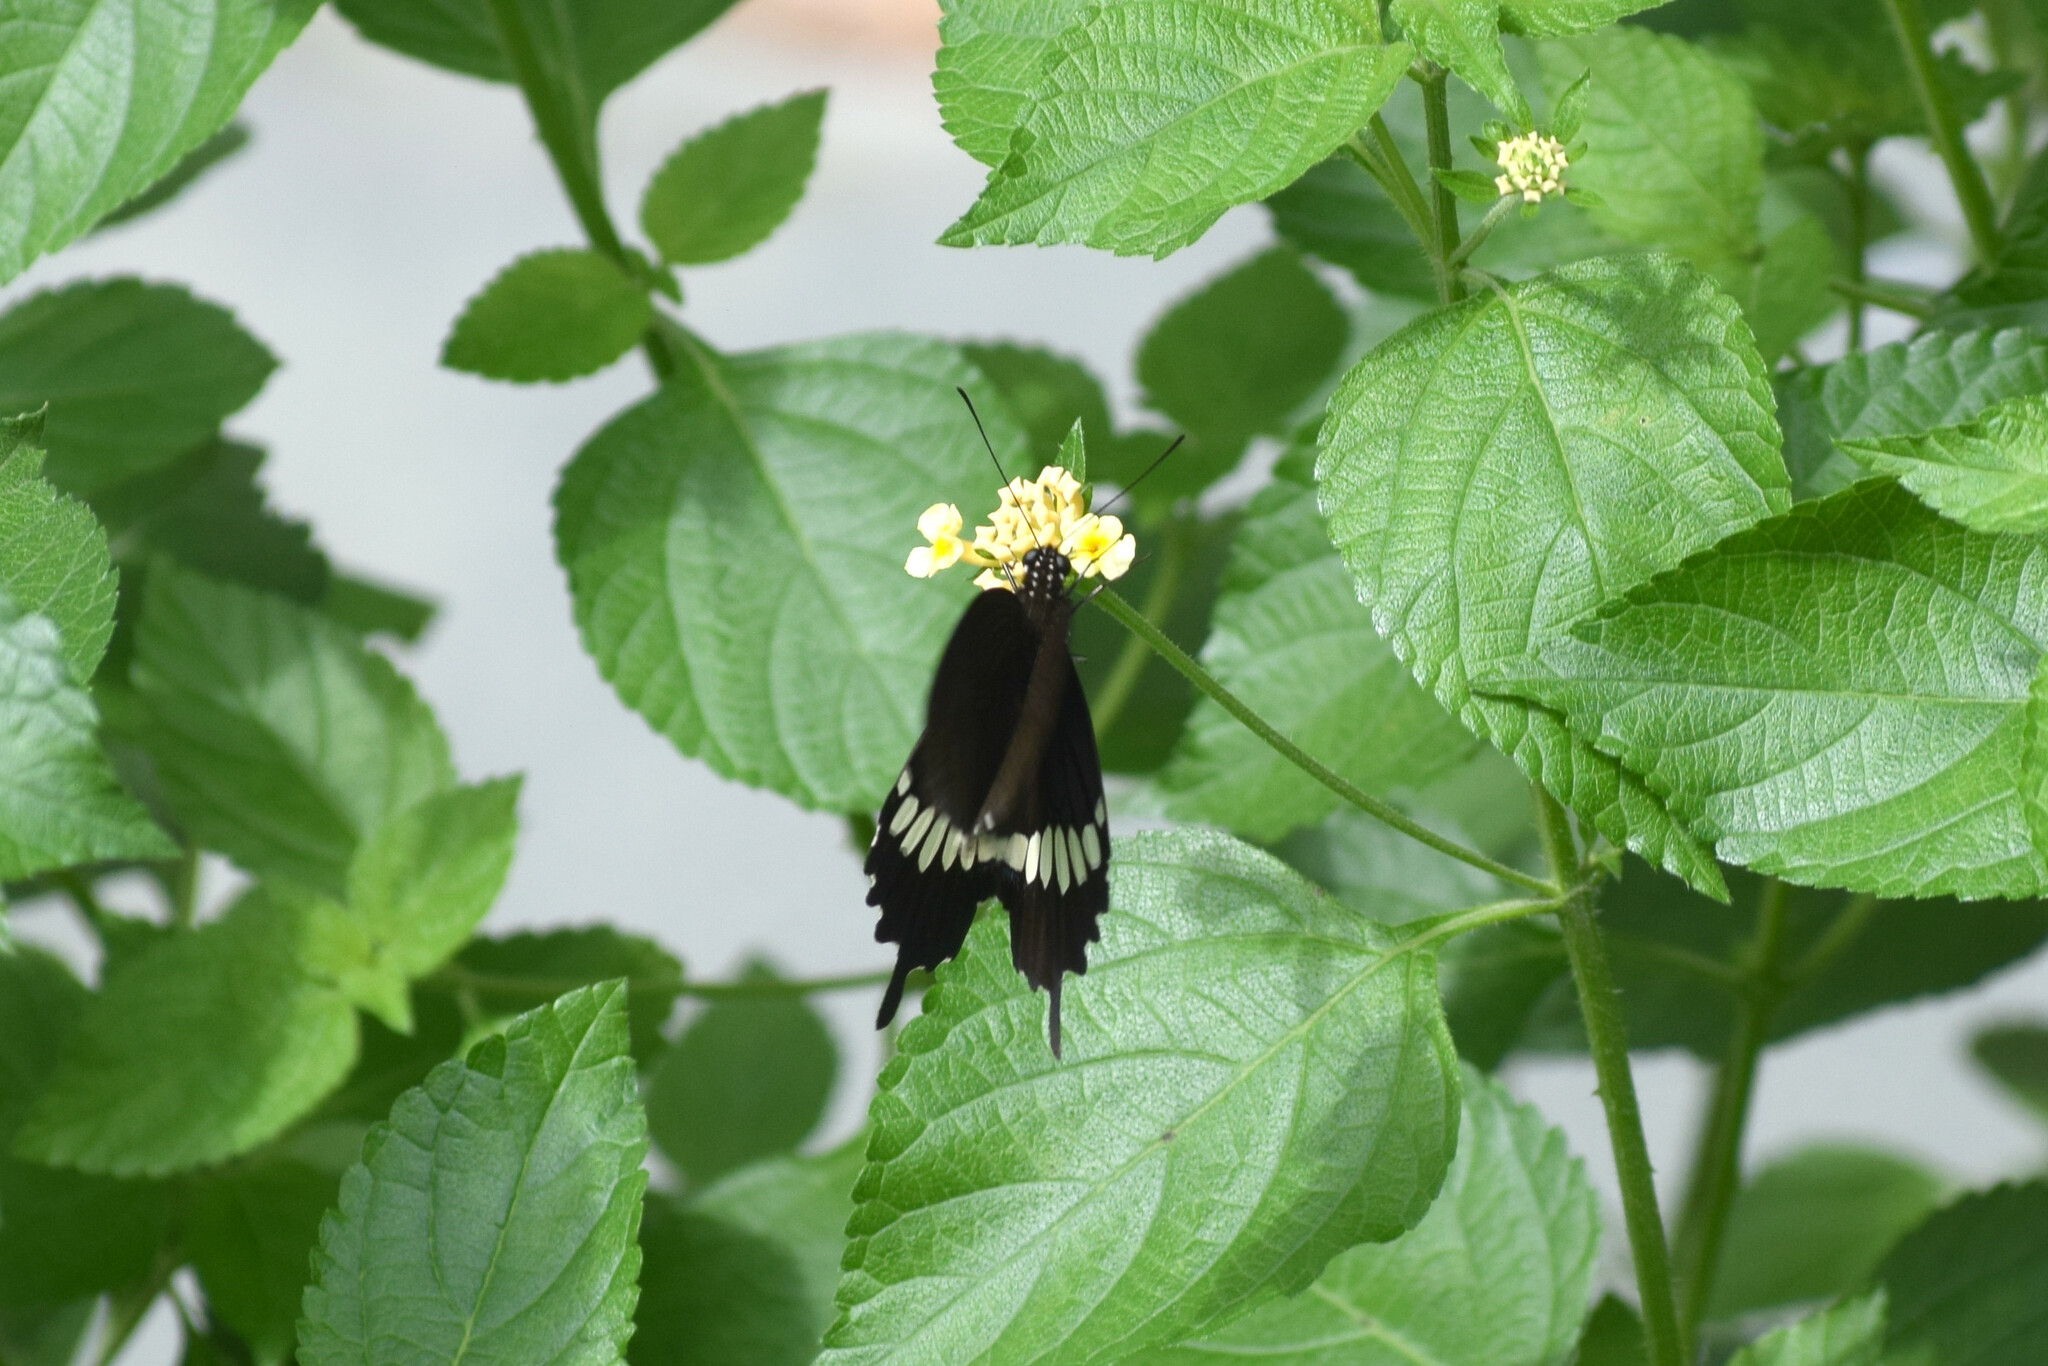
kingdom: Animalia
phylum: Arthropoda
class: Insecta
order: Lepidoptera
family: Papilionidae
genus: Papilio
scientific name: Papilio polytes
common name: Common mormon
